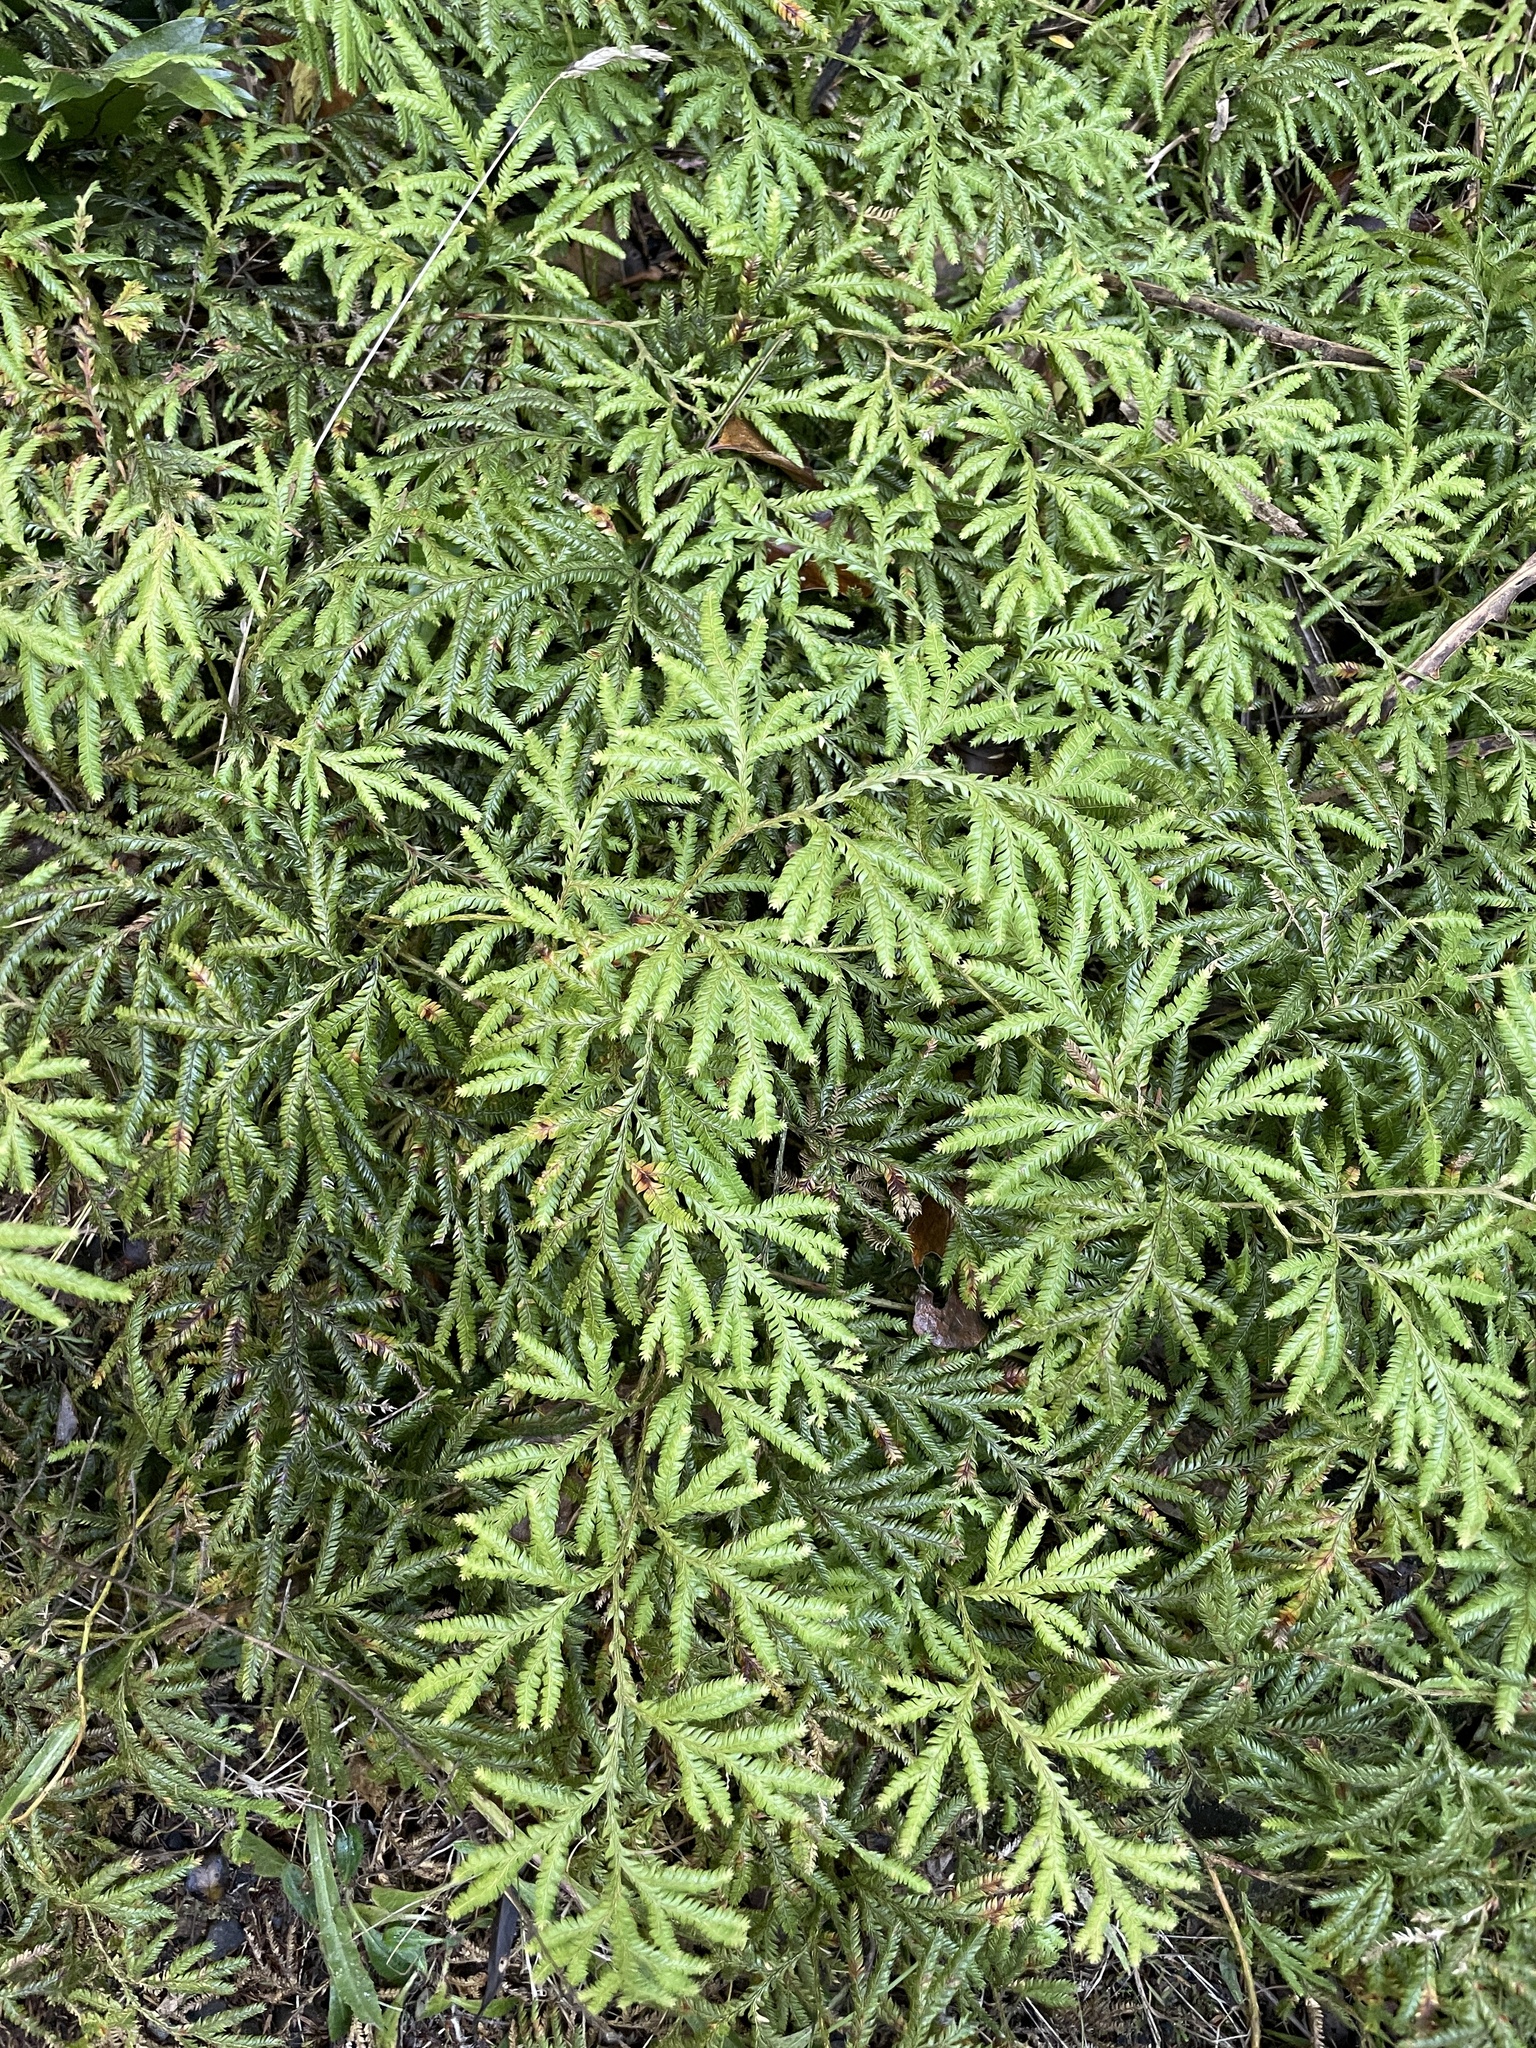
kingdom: Plantae
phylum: Tracheophyta
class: Lycopodiopsida
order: Lycopodiales
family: Lycopodiaceae
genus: Lycopodium
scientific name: Lycopodium volubile
